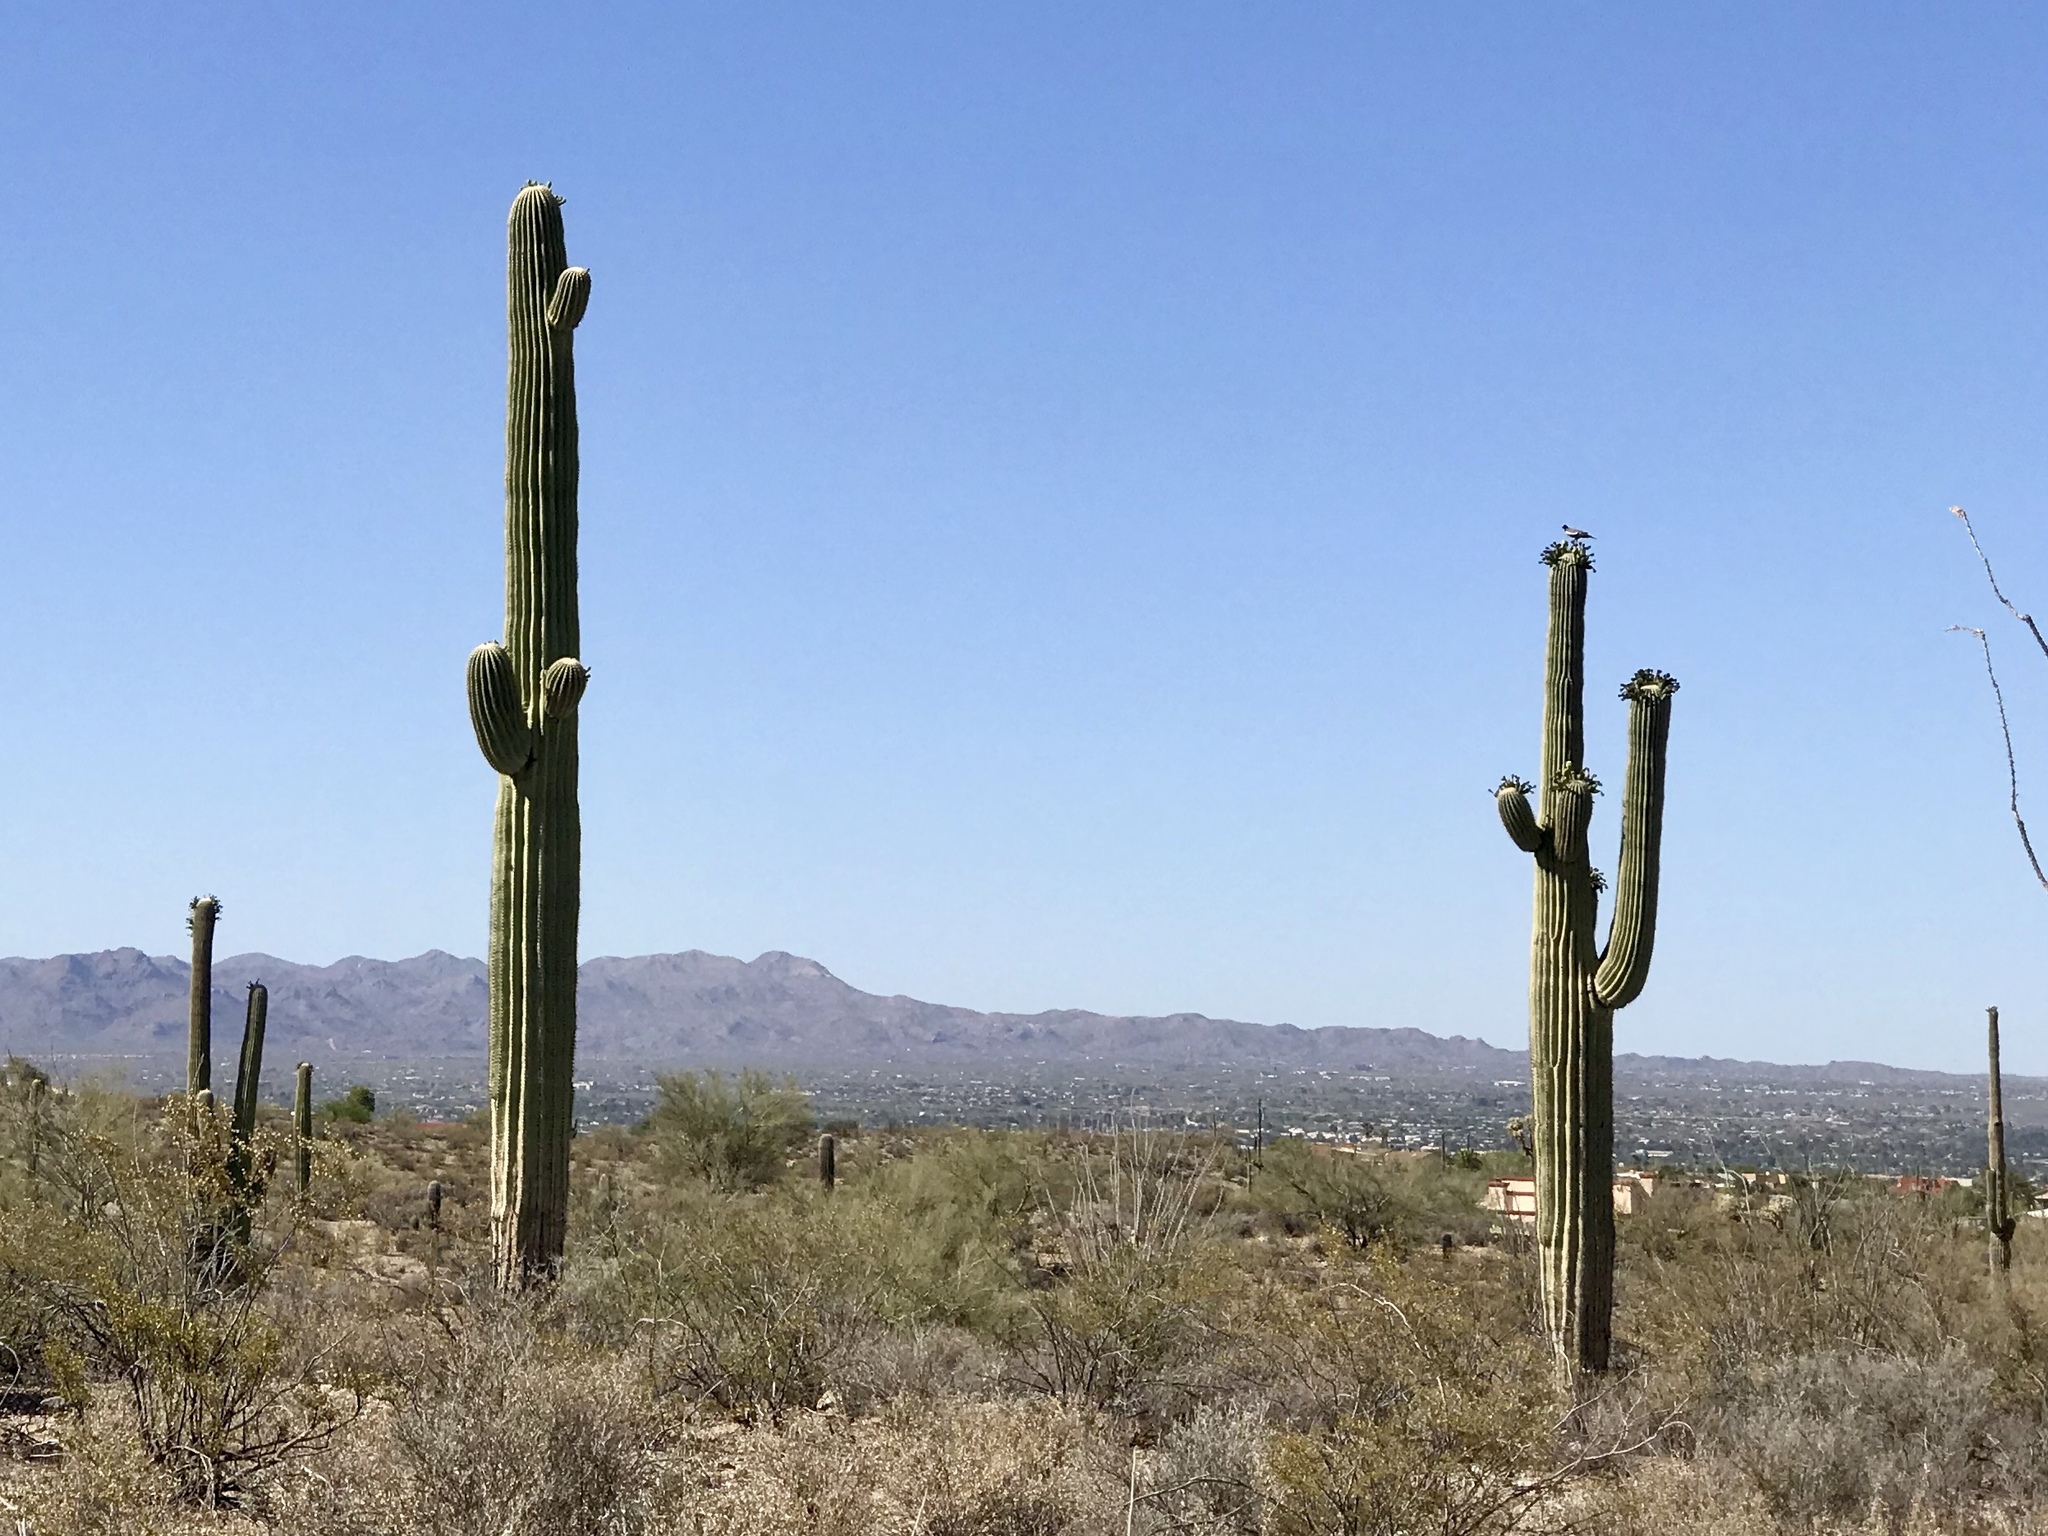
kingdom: Plantae
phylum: Tracheophyta
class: Magnoliopsida
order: Caryophyllales
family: Cactaceae
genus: Carnegiea
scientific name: Carnegiea gigantea
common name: Saguaro
